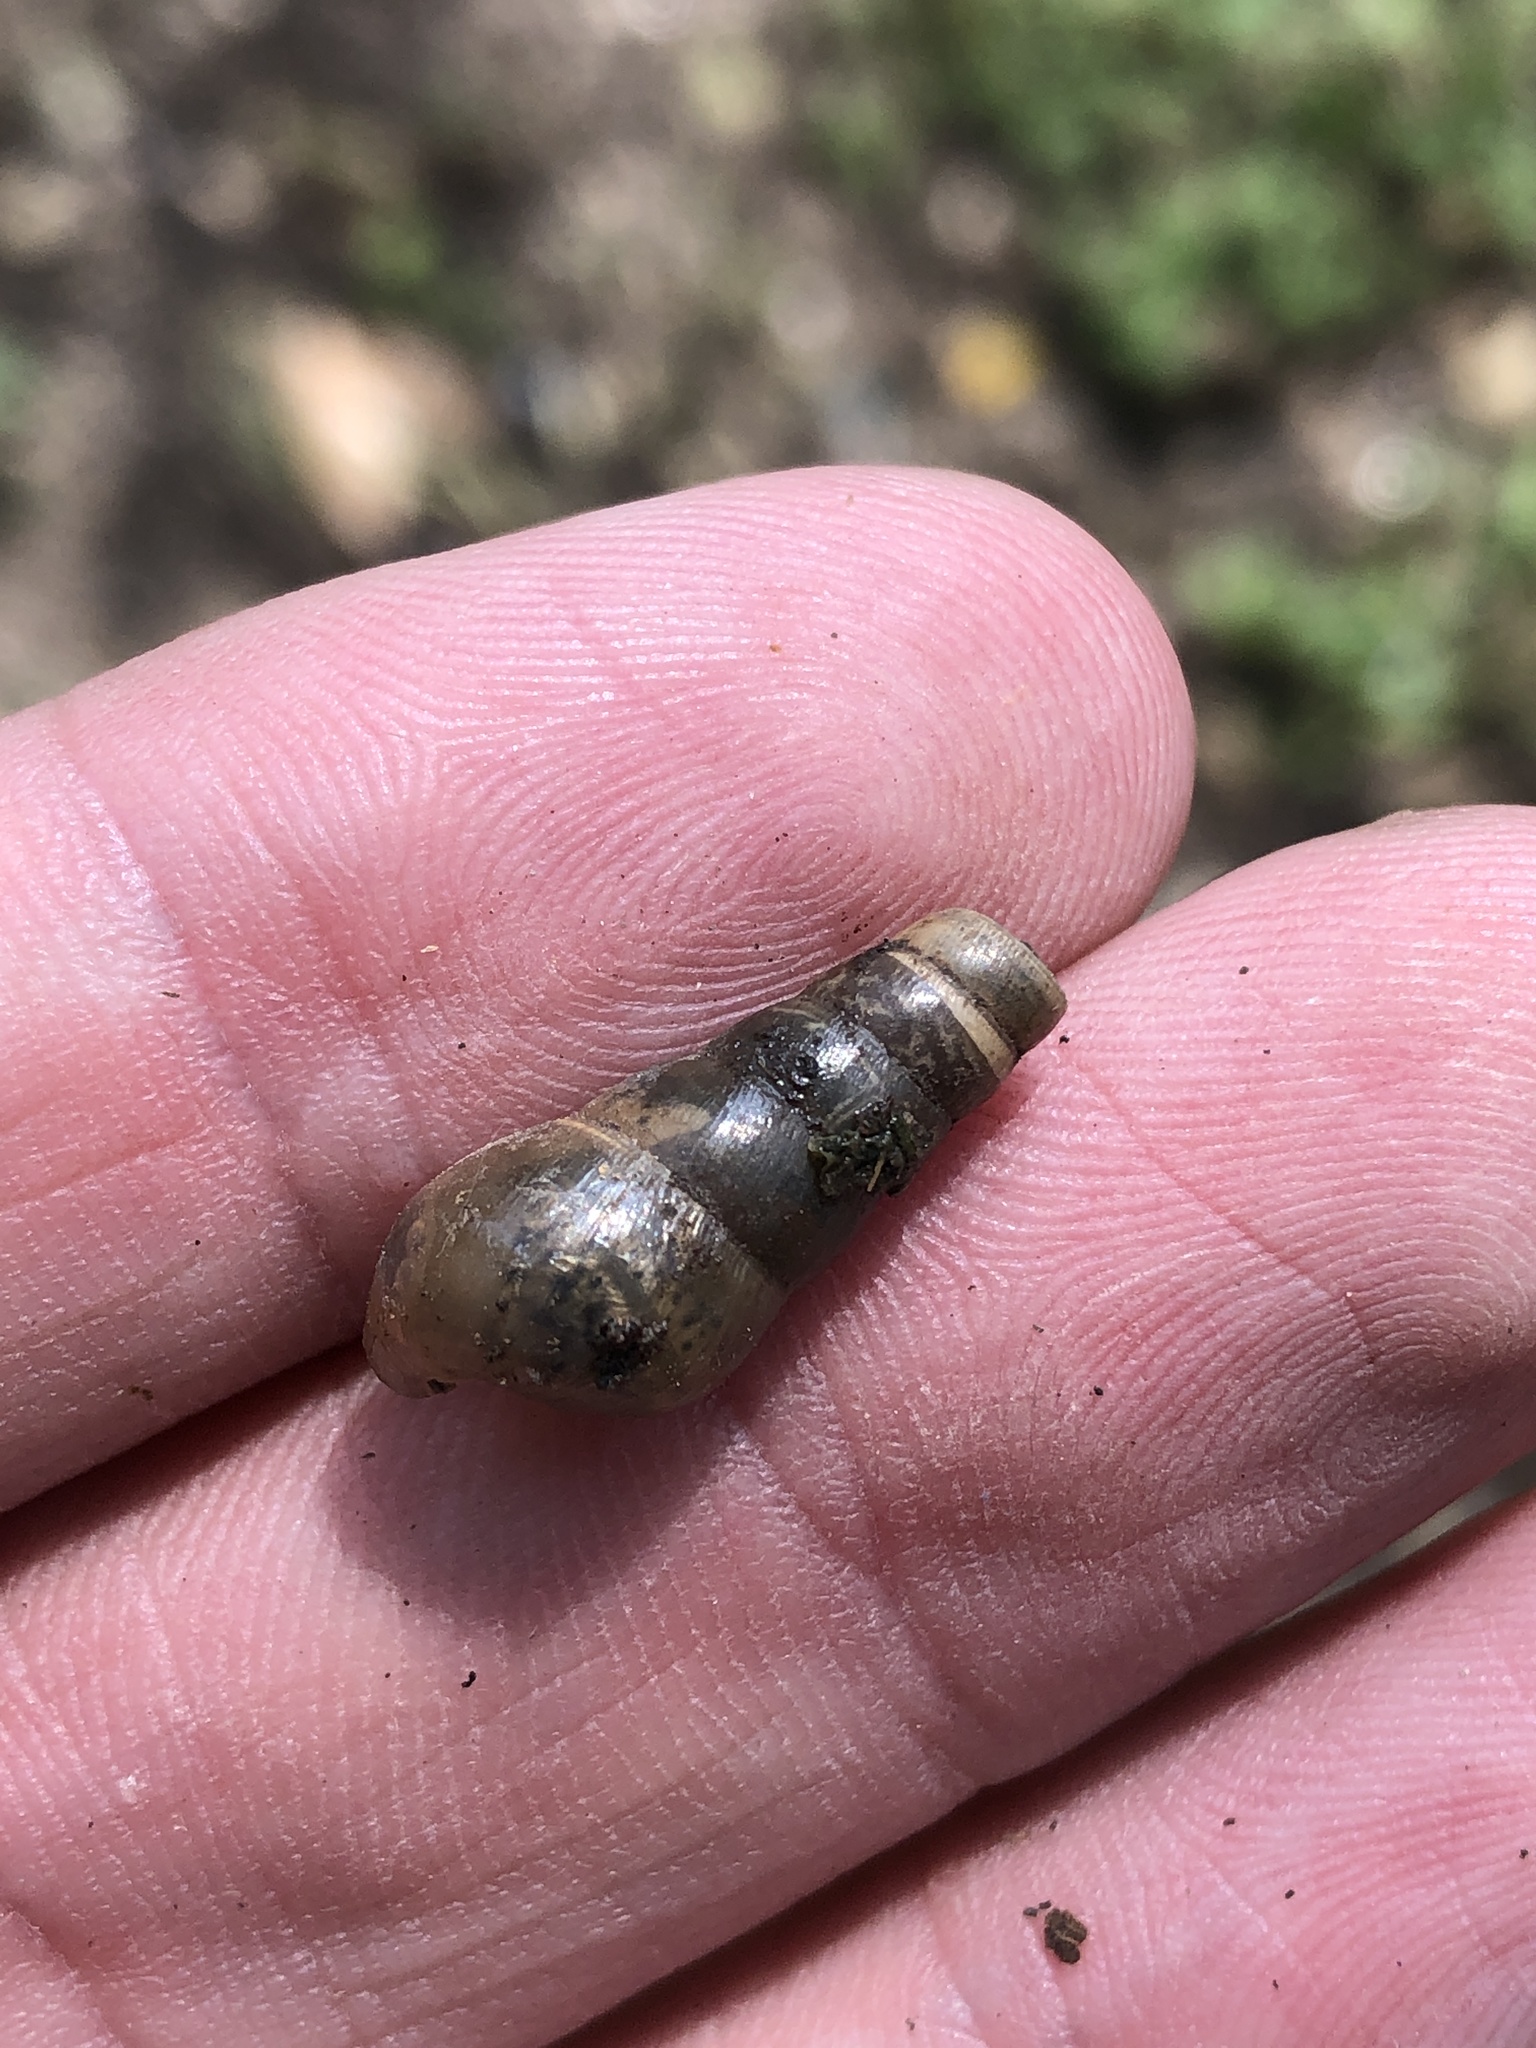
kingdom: Animalia
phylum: Mollusca
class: Gastropoda
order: Stylommatophora
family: Achatinidae
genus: Rumina
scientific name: Rumina decollata
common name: Decollate snail
